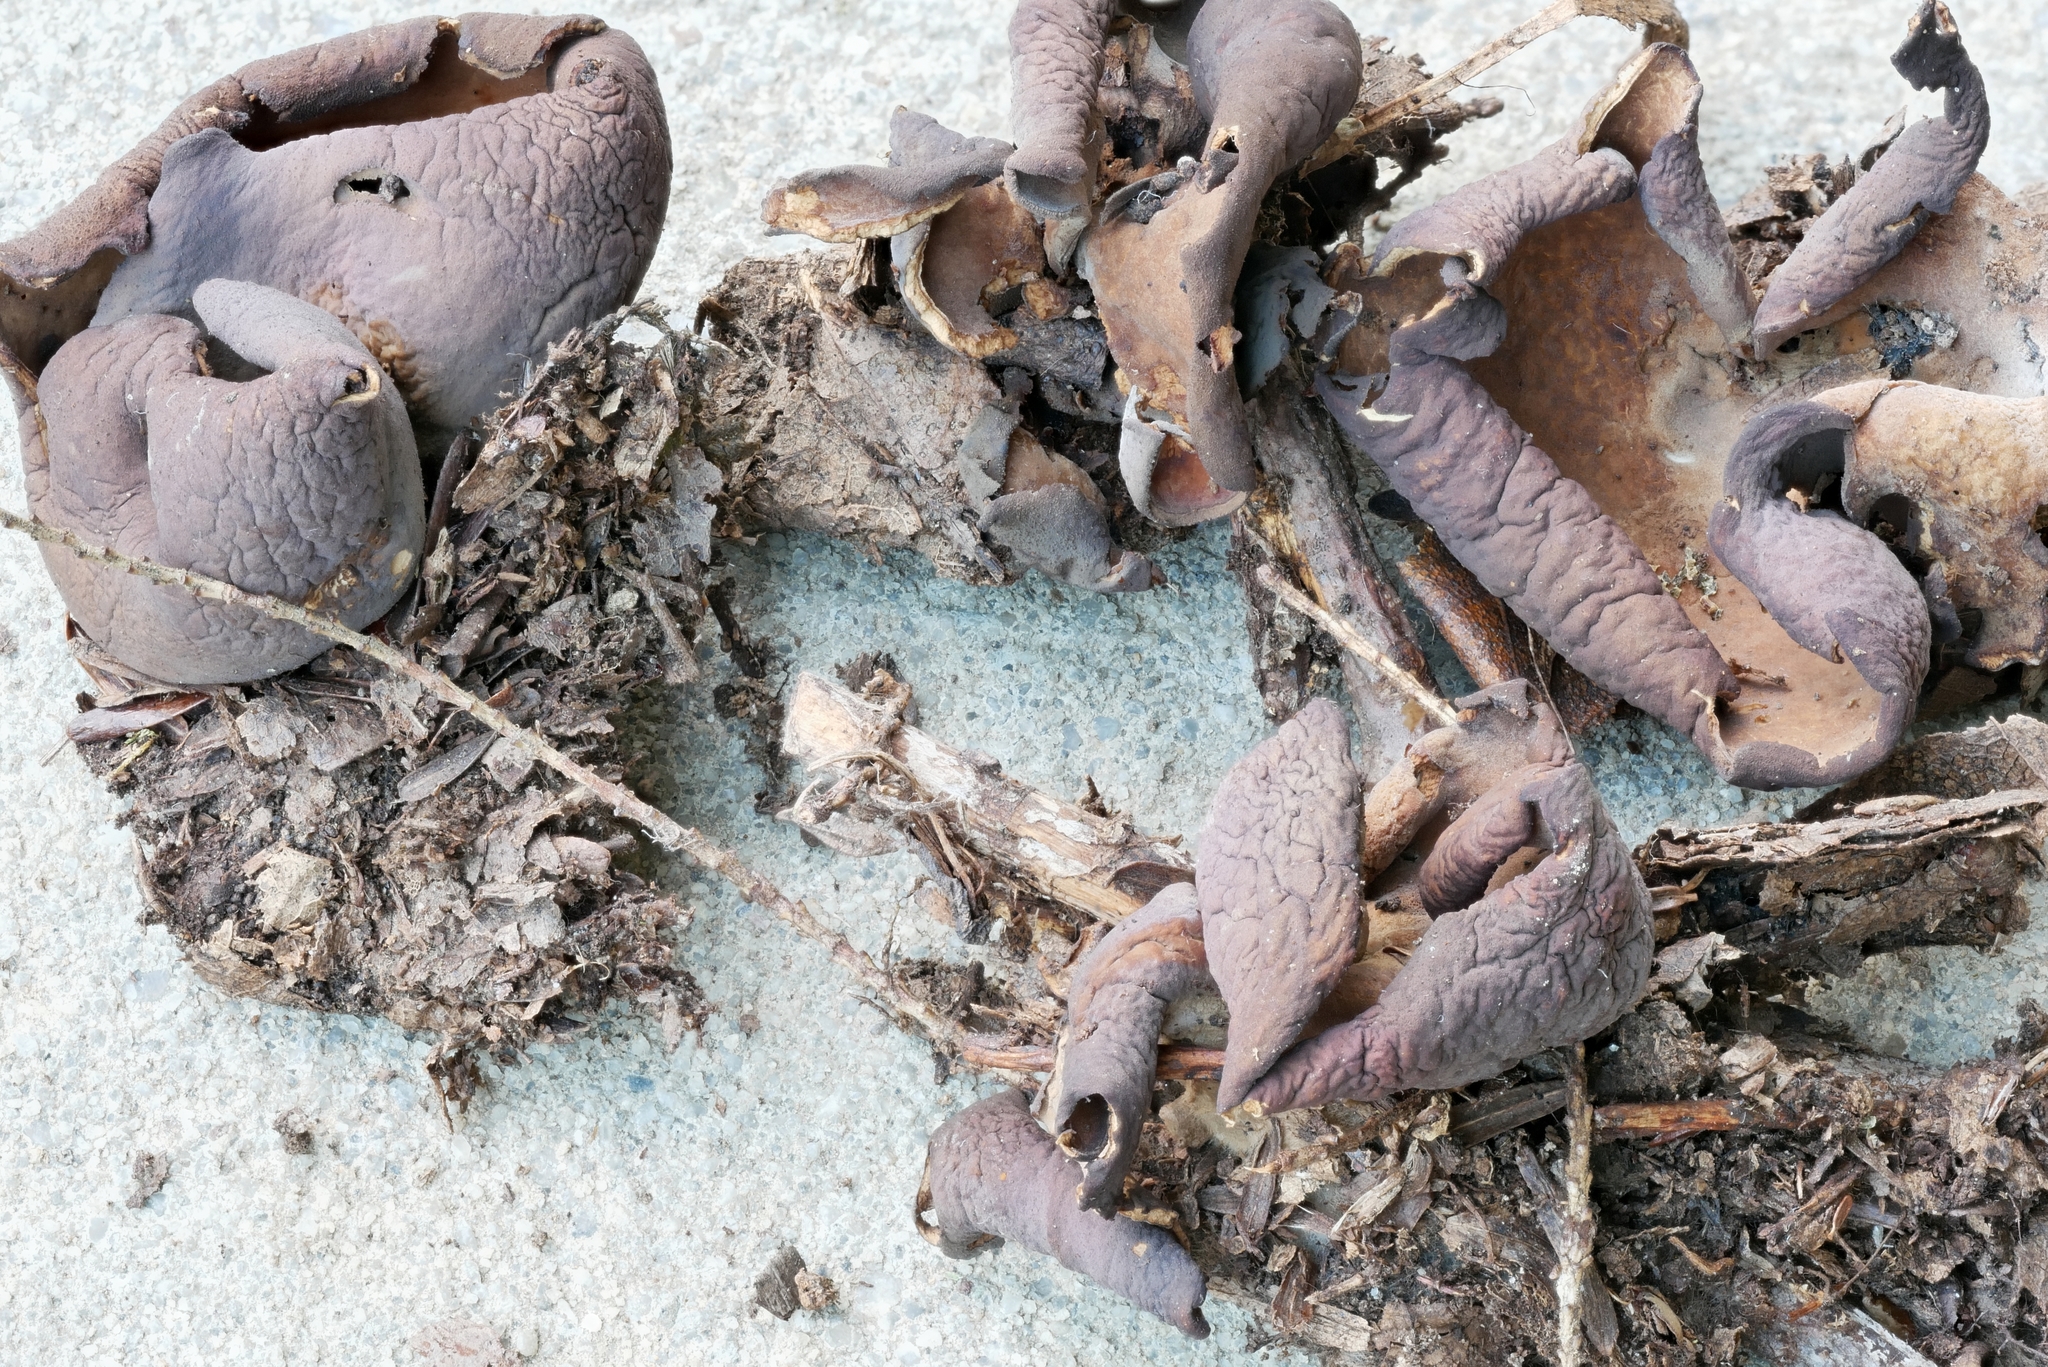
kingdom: Fungi
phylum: Ascomycota
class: Pezizomycetes
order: Pezizales
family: Otideaceae
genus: Otidea
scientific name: Otidea bufonia
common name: Toad's ear
